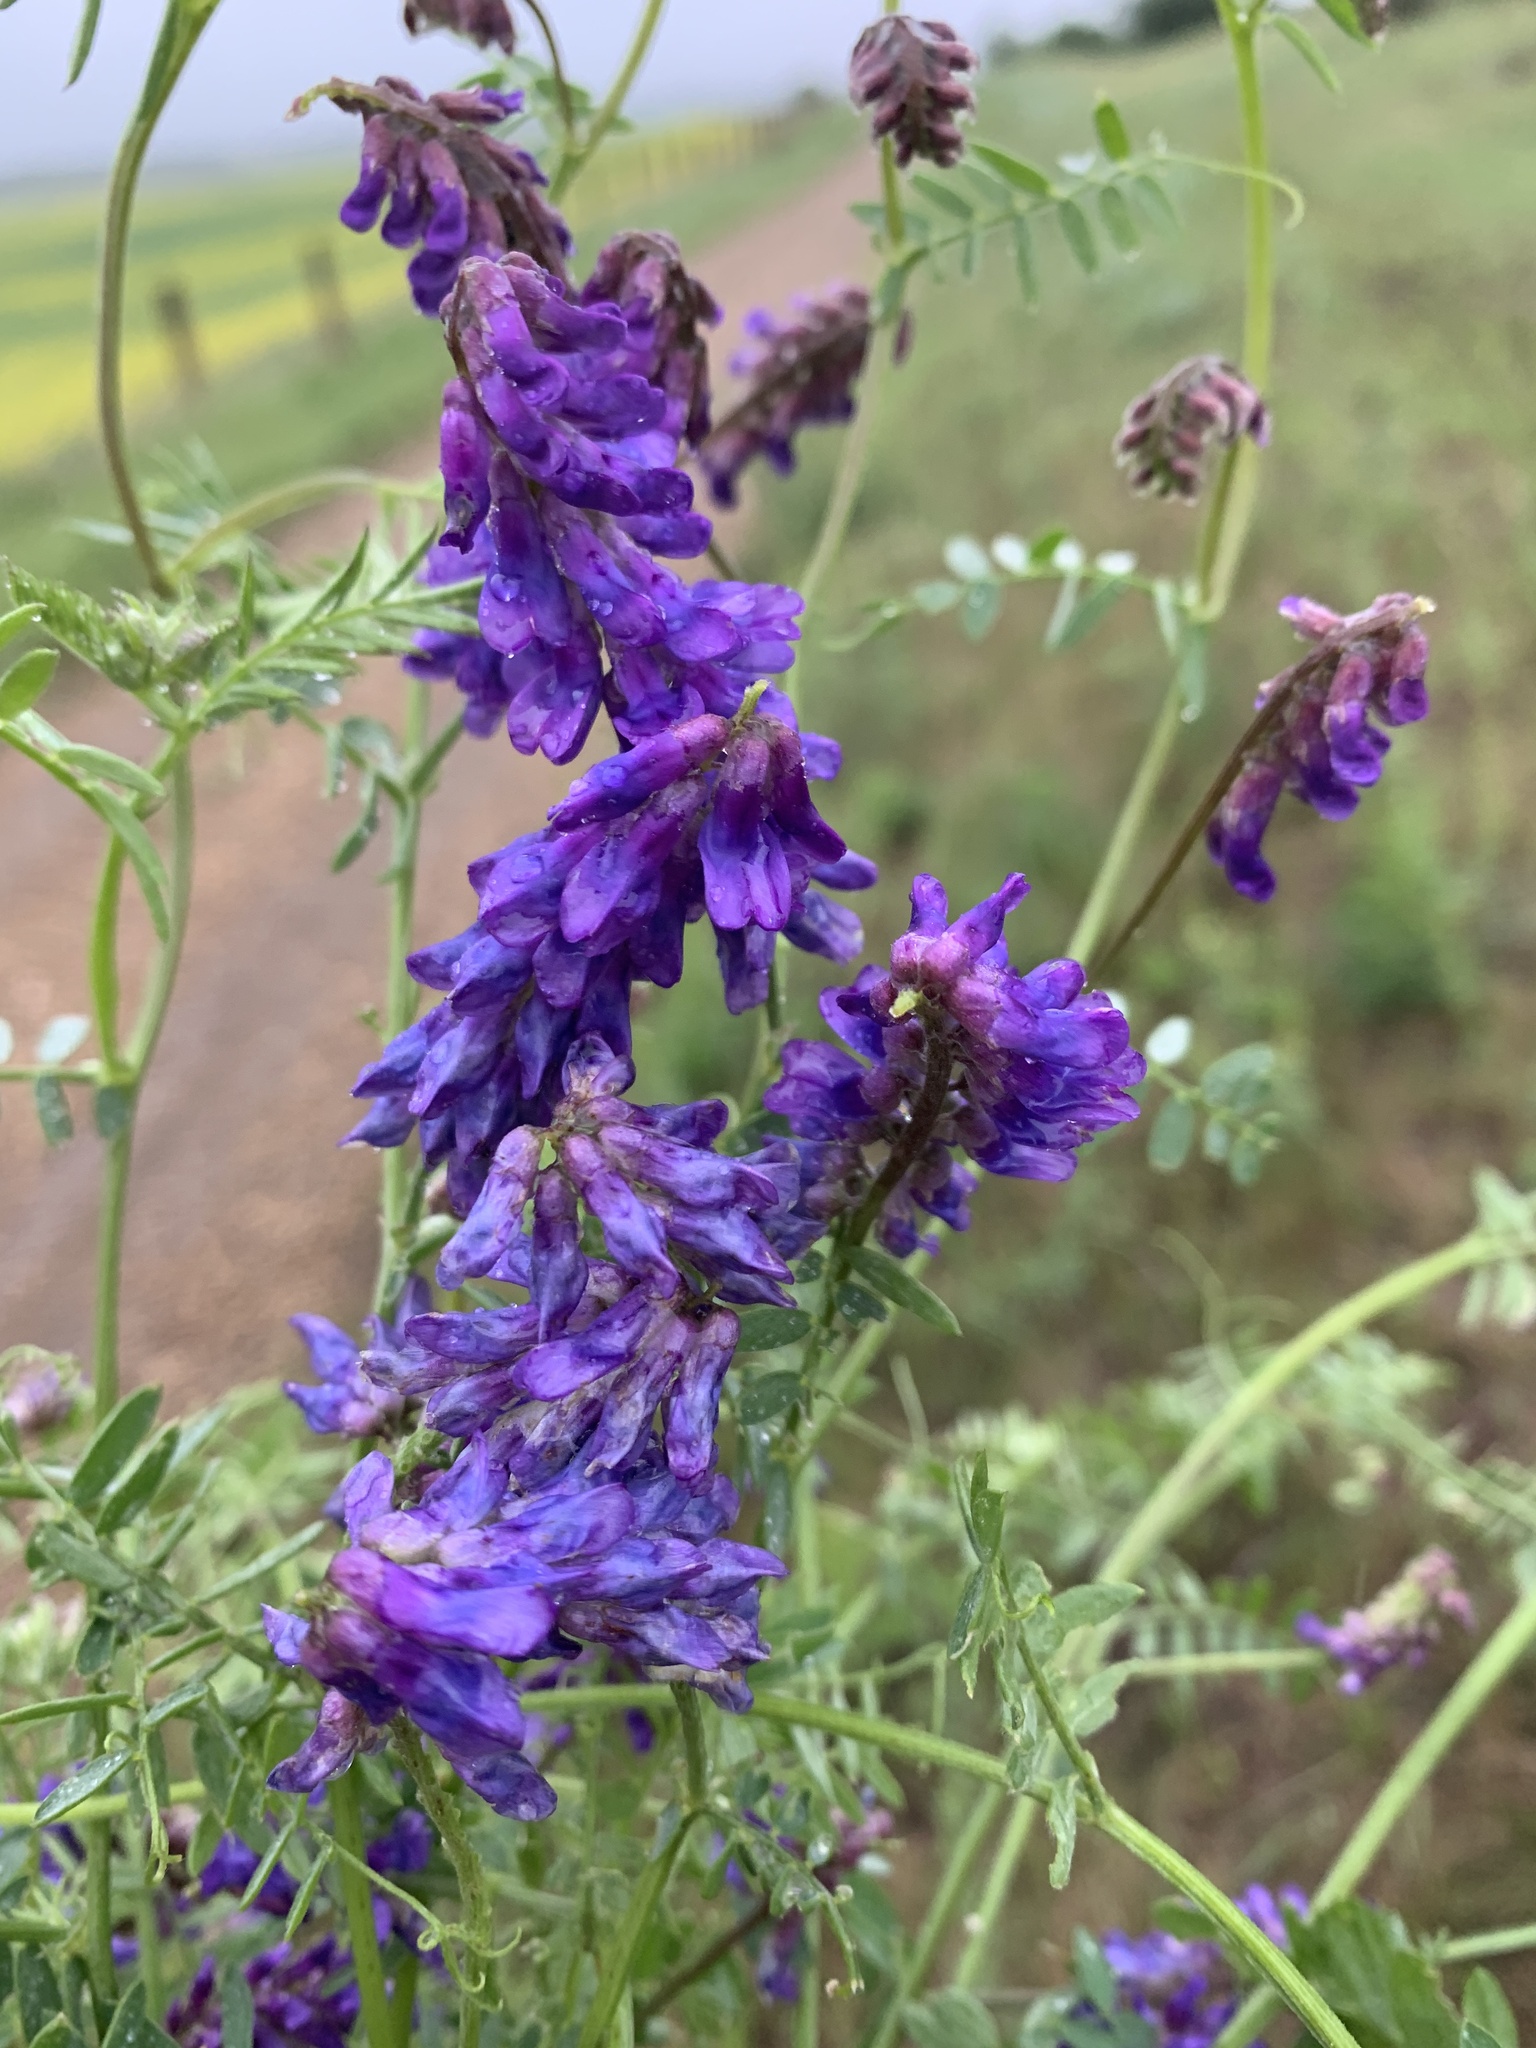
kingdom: Plantae
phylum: Tracheophyta
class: Magnoliopsida
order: Fabales
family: Fabaceae
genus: Vicia
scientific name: Vicia cracca
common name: Bird vetch
